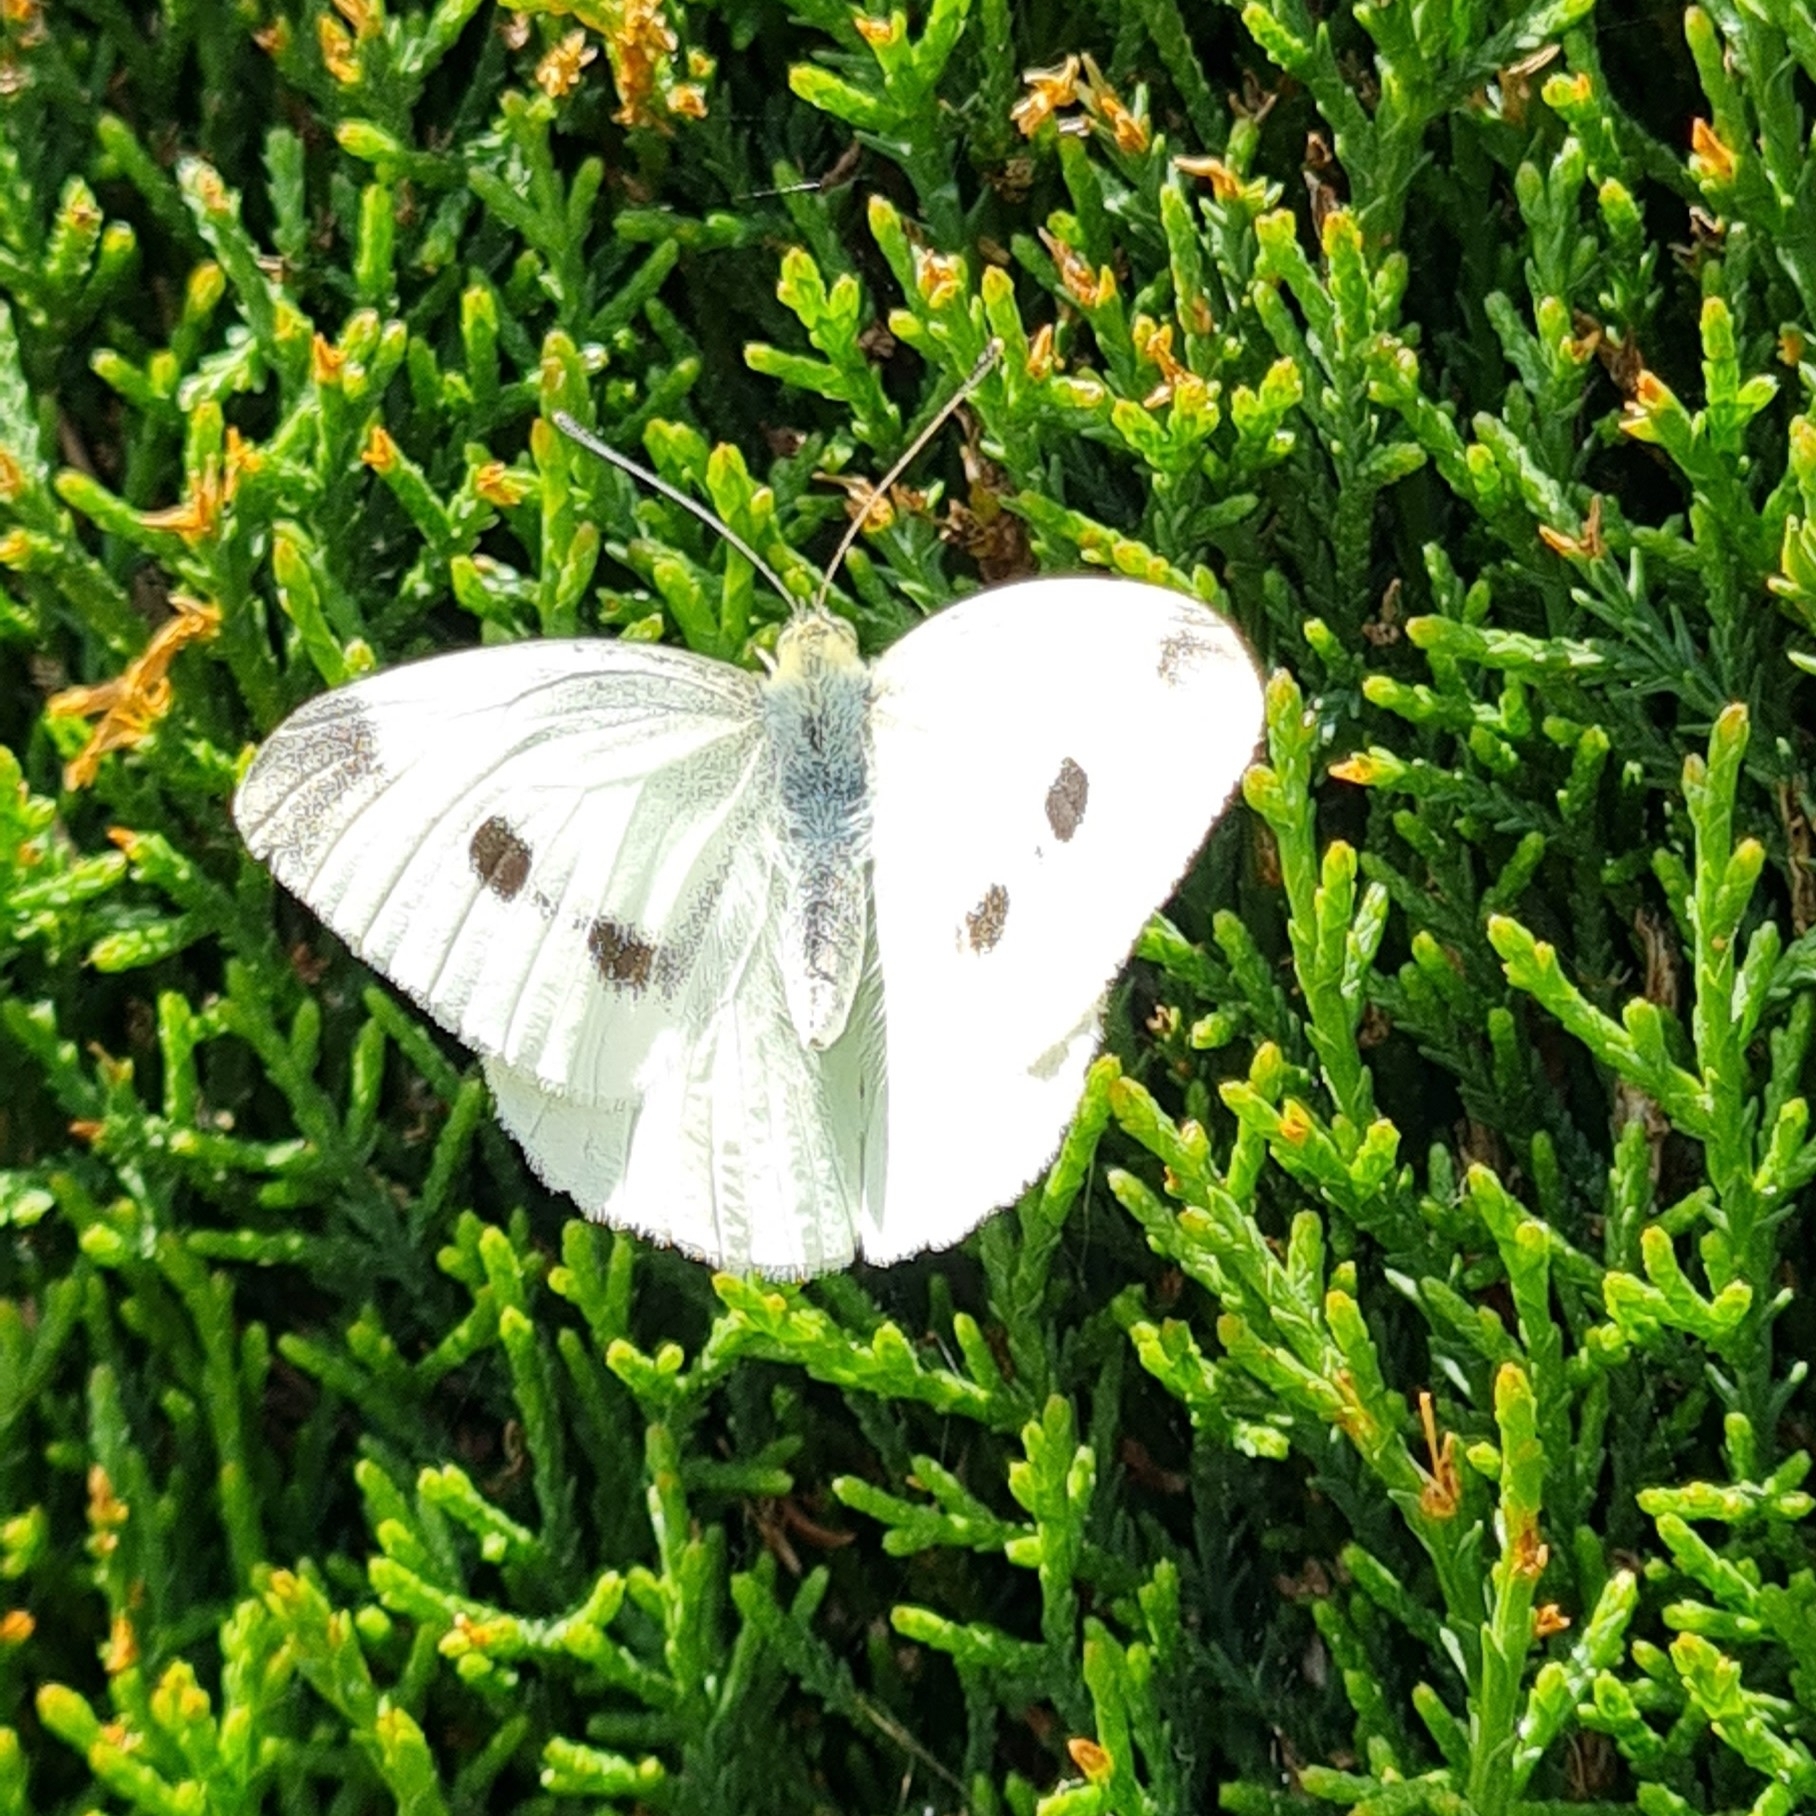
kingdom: Animalia
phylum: Arthropoda
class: Insecta
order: Lepidoptera
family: Pieridae
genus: Pieris
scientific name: Pieris rapae
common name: Small white
